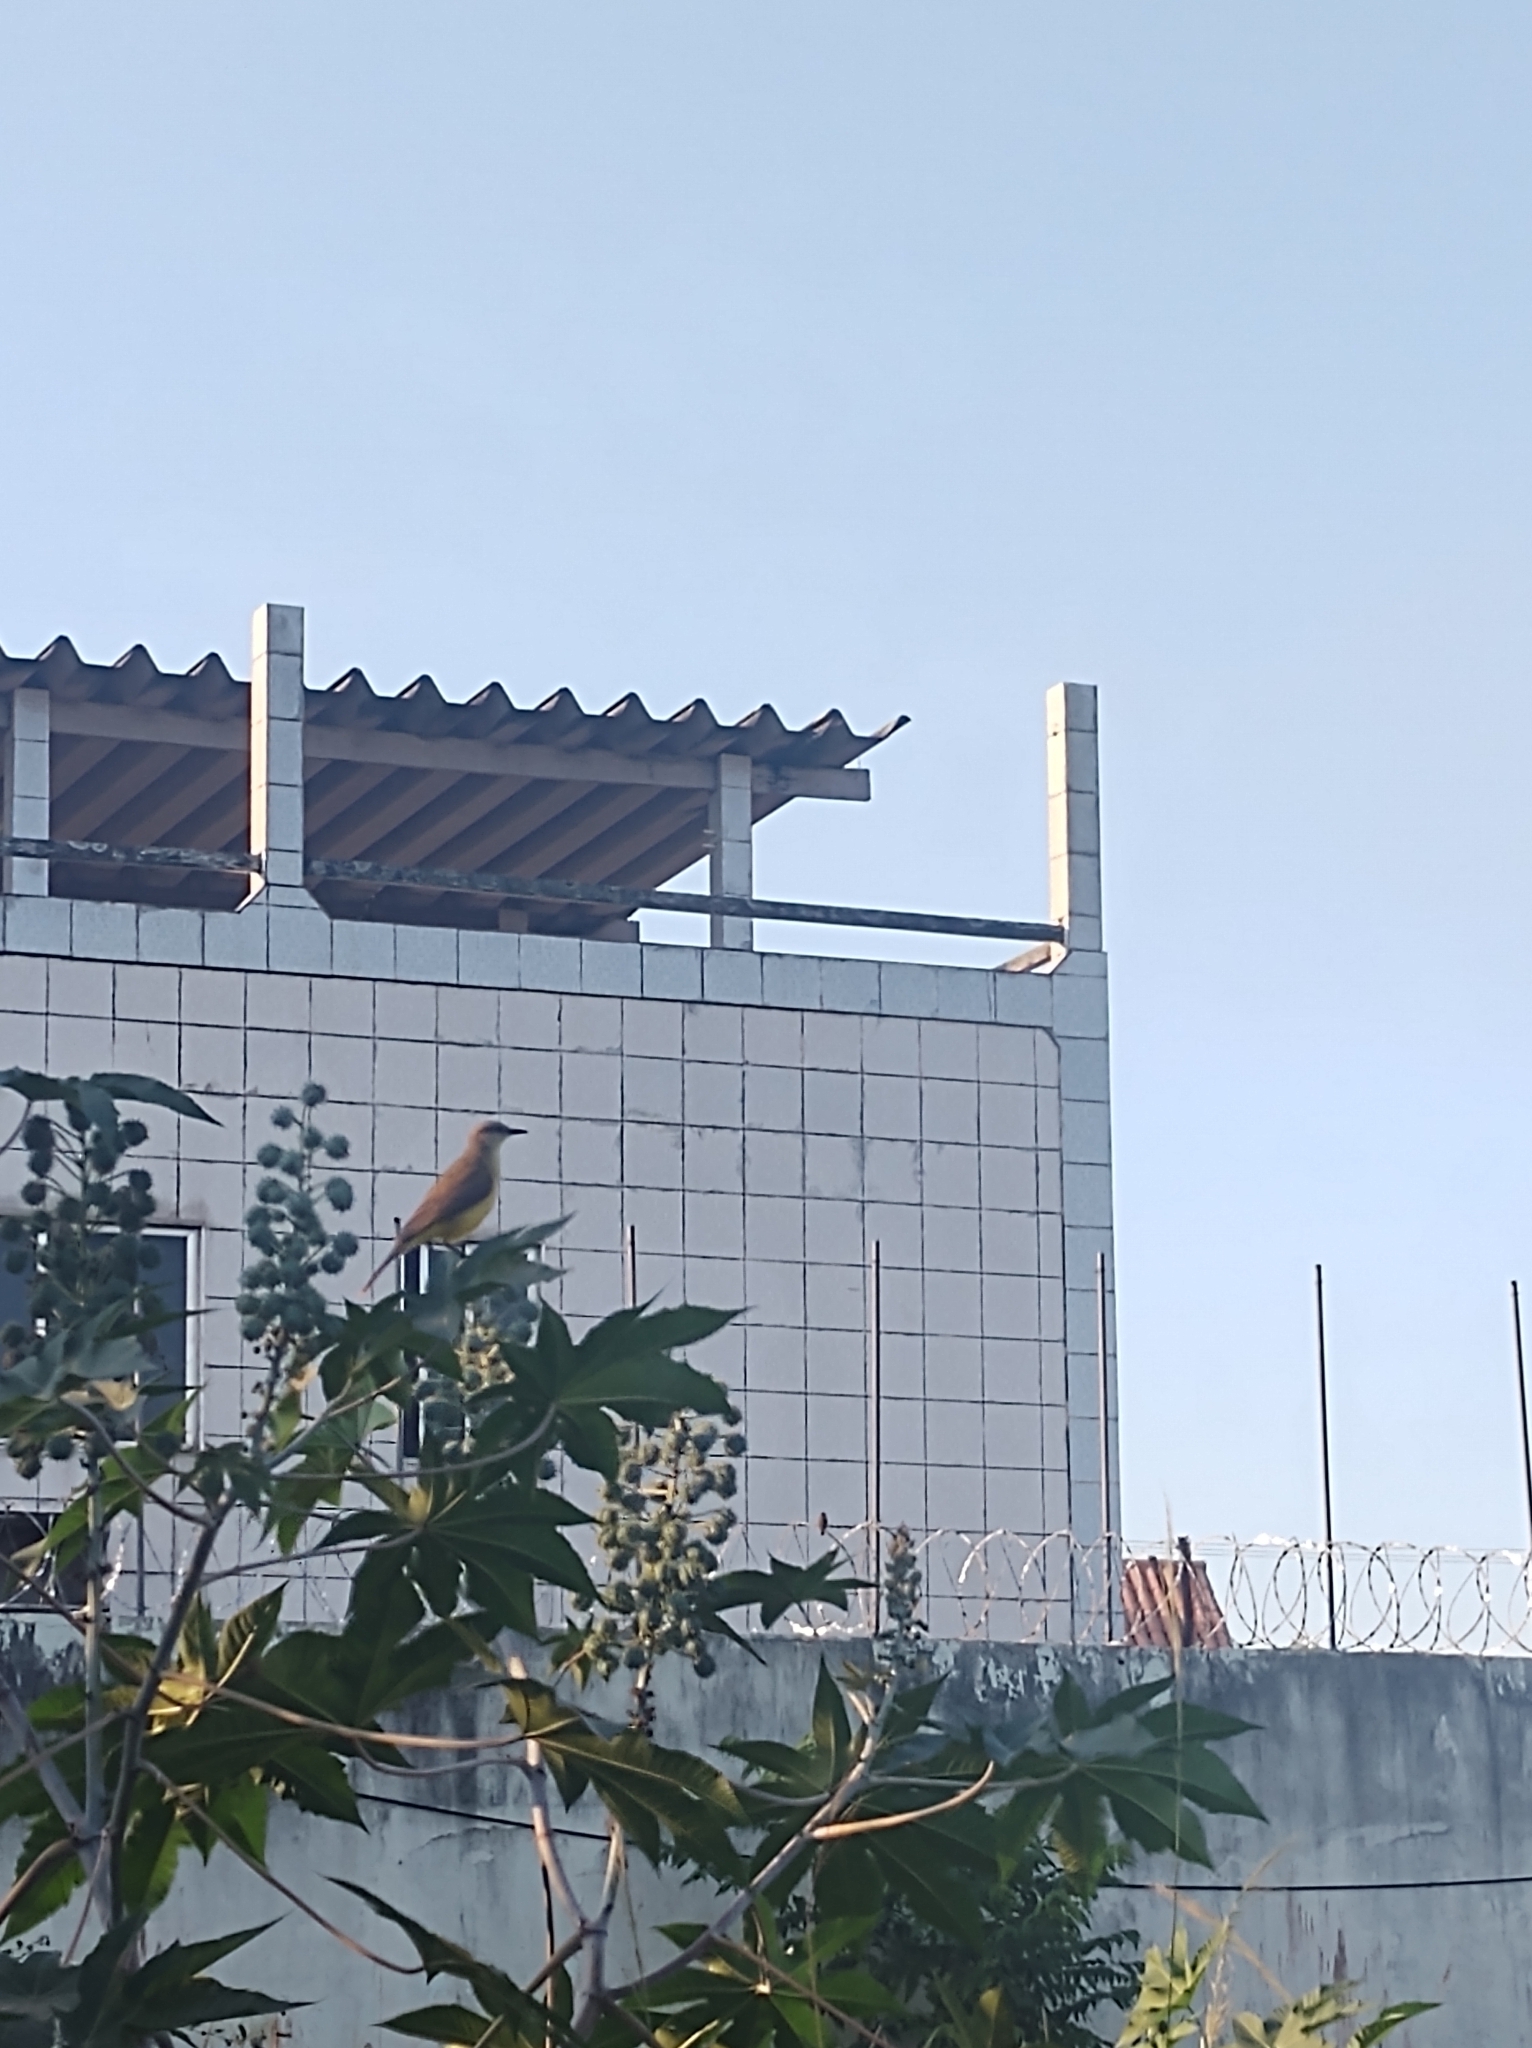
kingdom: Animalia
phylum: Chordata
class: Aves
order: Passeriformes
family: Tyrannidae
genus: Machetornis
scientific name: Machetornis rixosa
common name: Cattle tyrant
